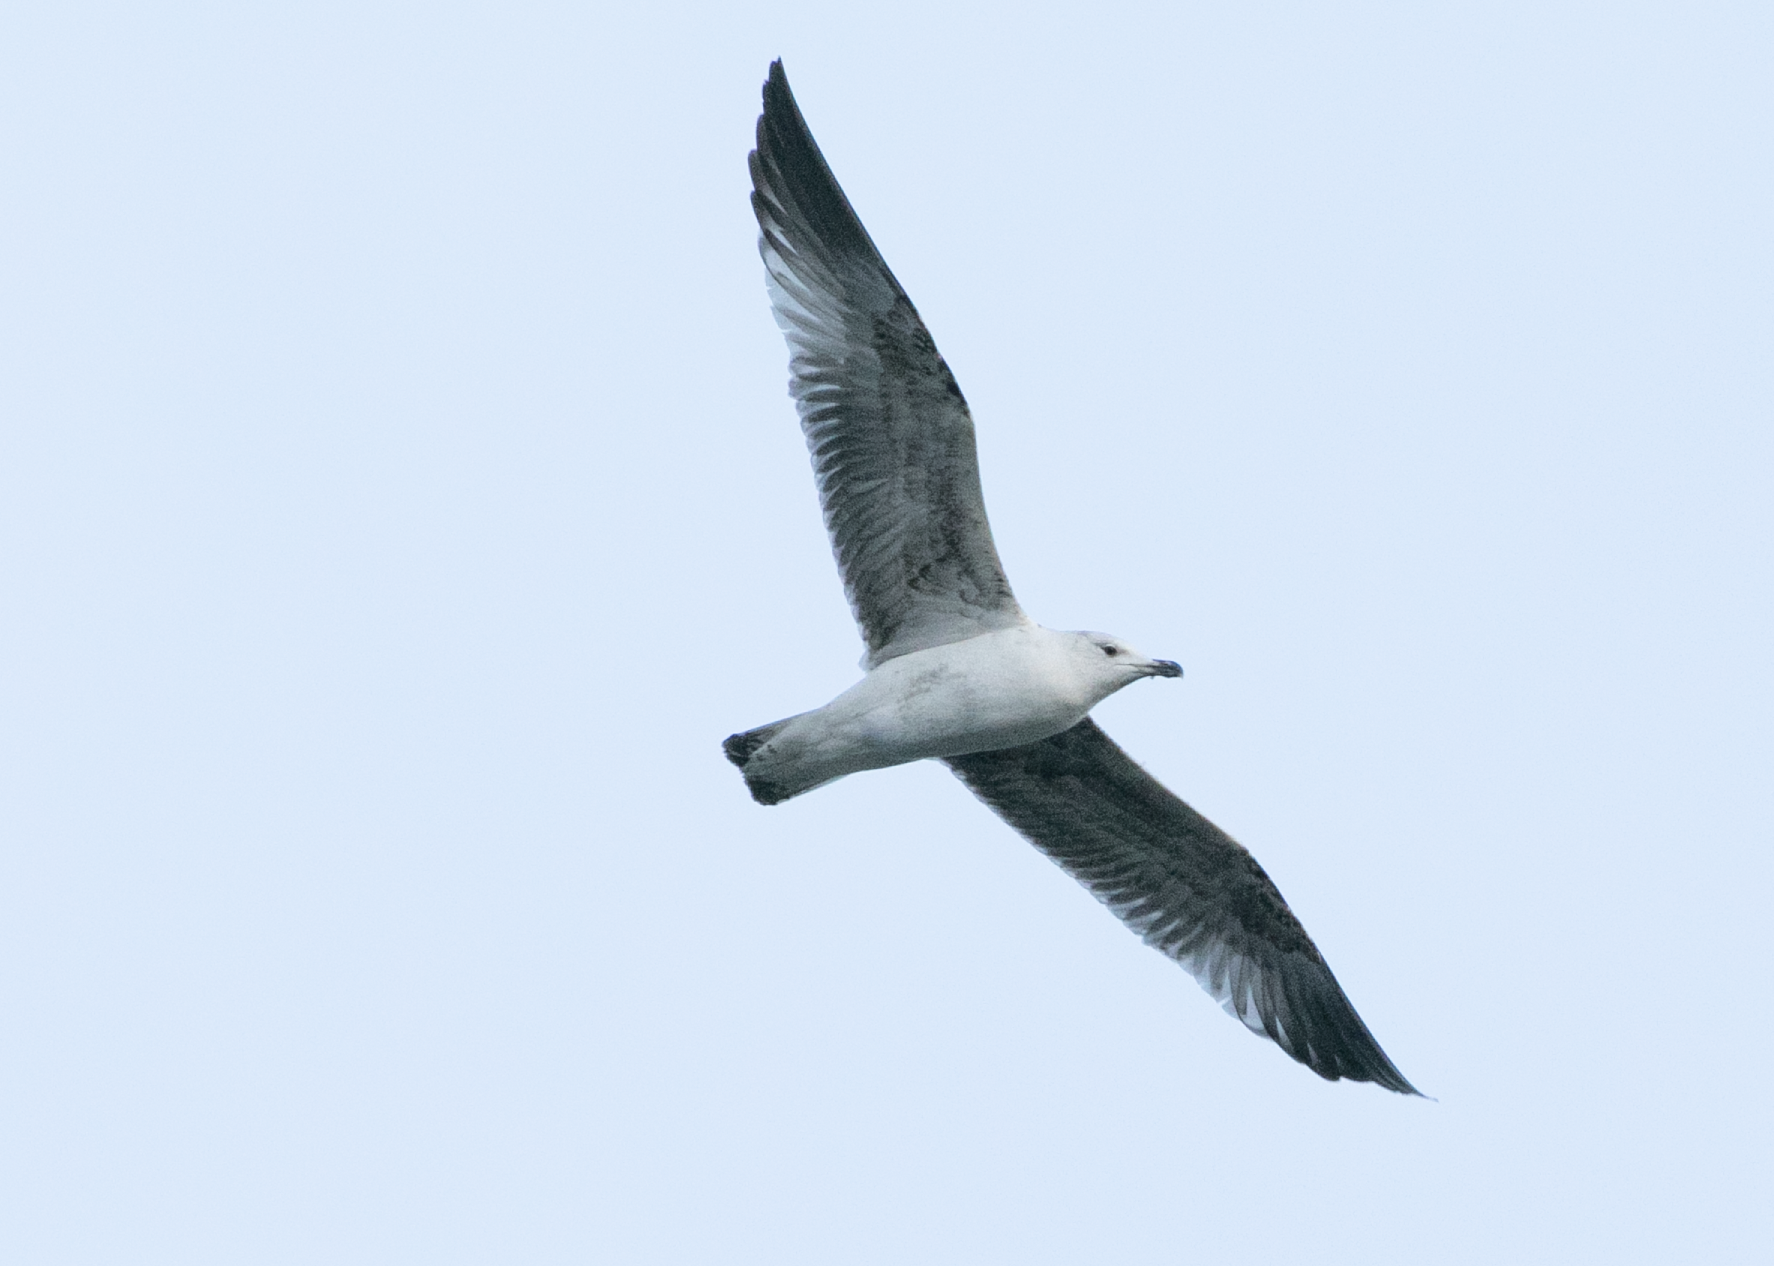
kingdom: Animalia
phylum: Chordata
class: Aves
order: Charadriiformes
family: Laridae
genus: Larus
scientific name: Larus michahellis
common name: Yellow-legged gull
